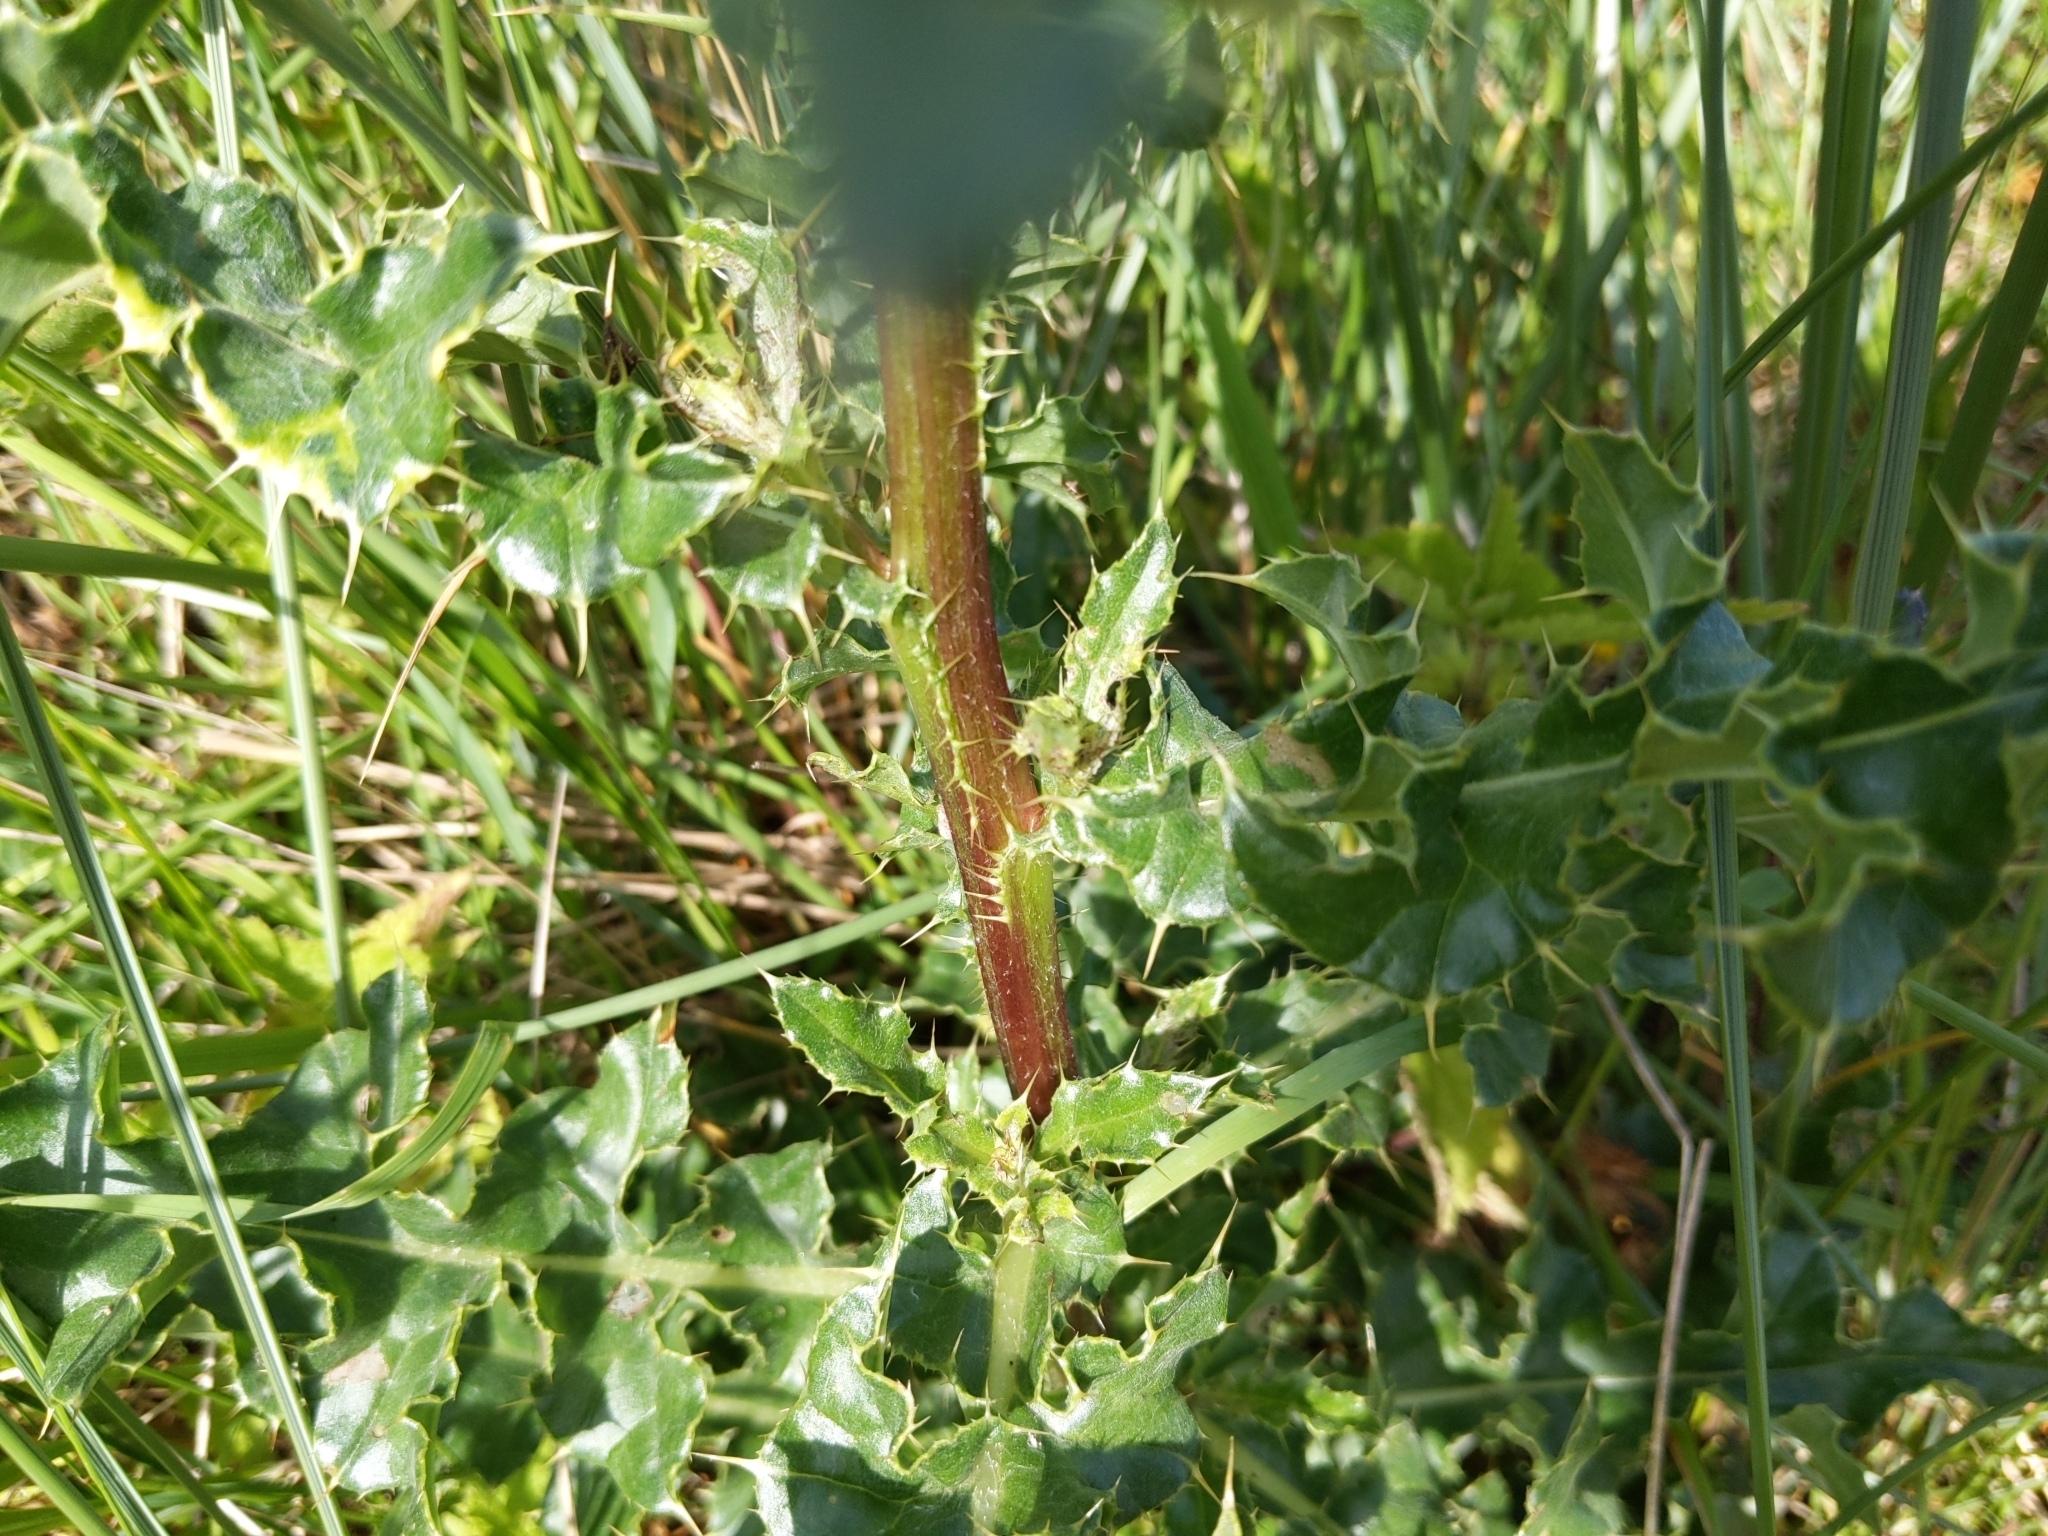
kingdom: Plantae
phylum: Tracheophyta
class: Magnoliopsida
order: Asterales
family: Asteraceae
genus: Cirsium
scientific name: Cirsium arvense
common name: Creeping thistle
